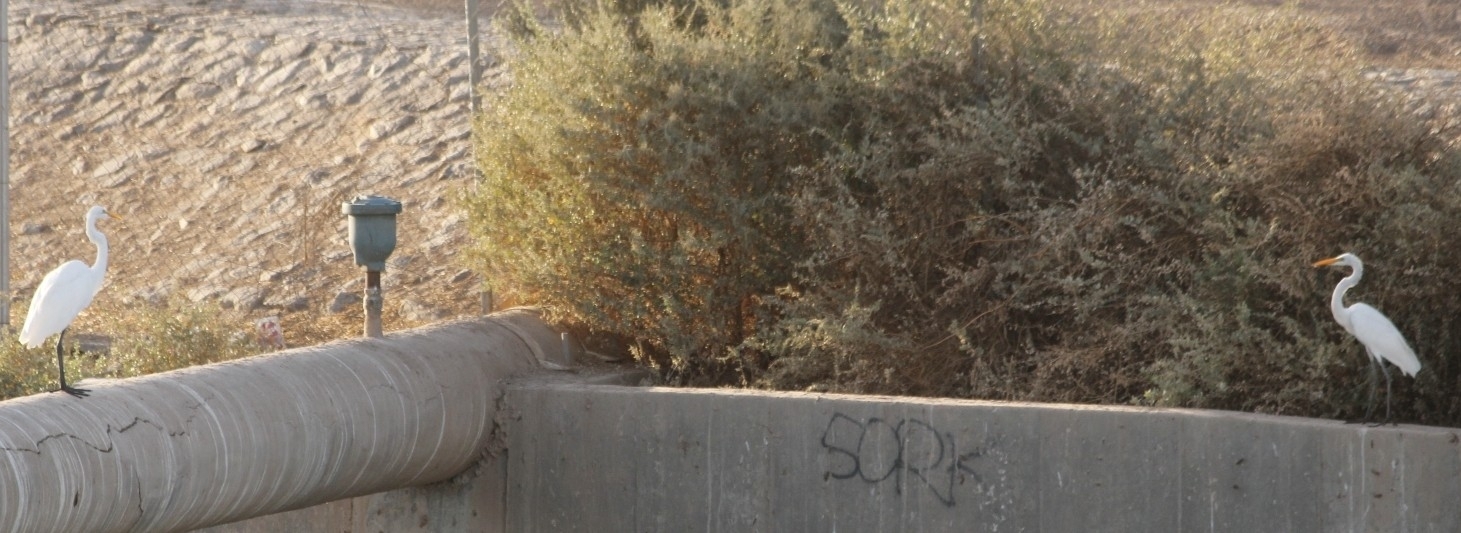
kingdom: Animalia
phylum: Chordata
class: Aves
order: Pelecaniformes
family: Ardeidae
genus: Ardea
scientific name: Ardea alba
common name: Great egret
